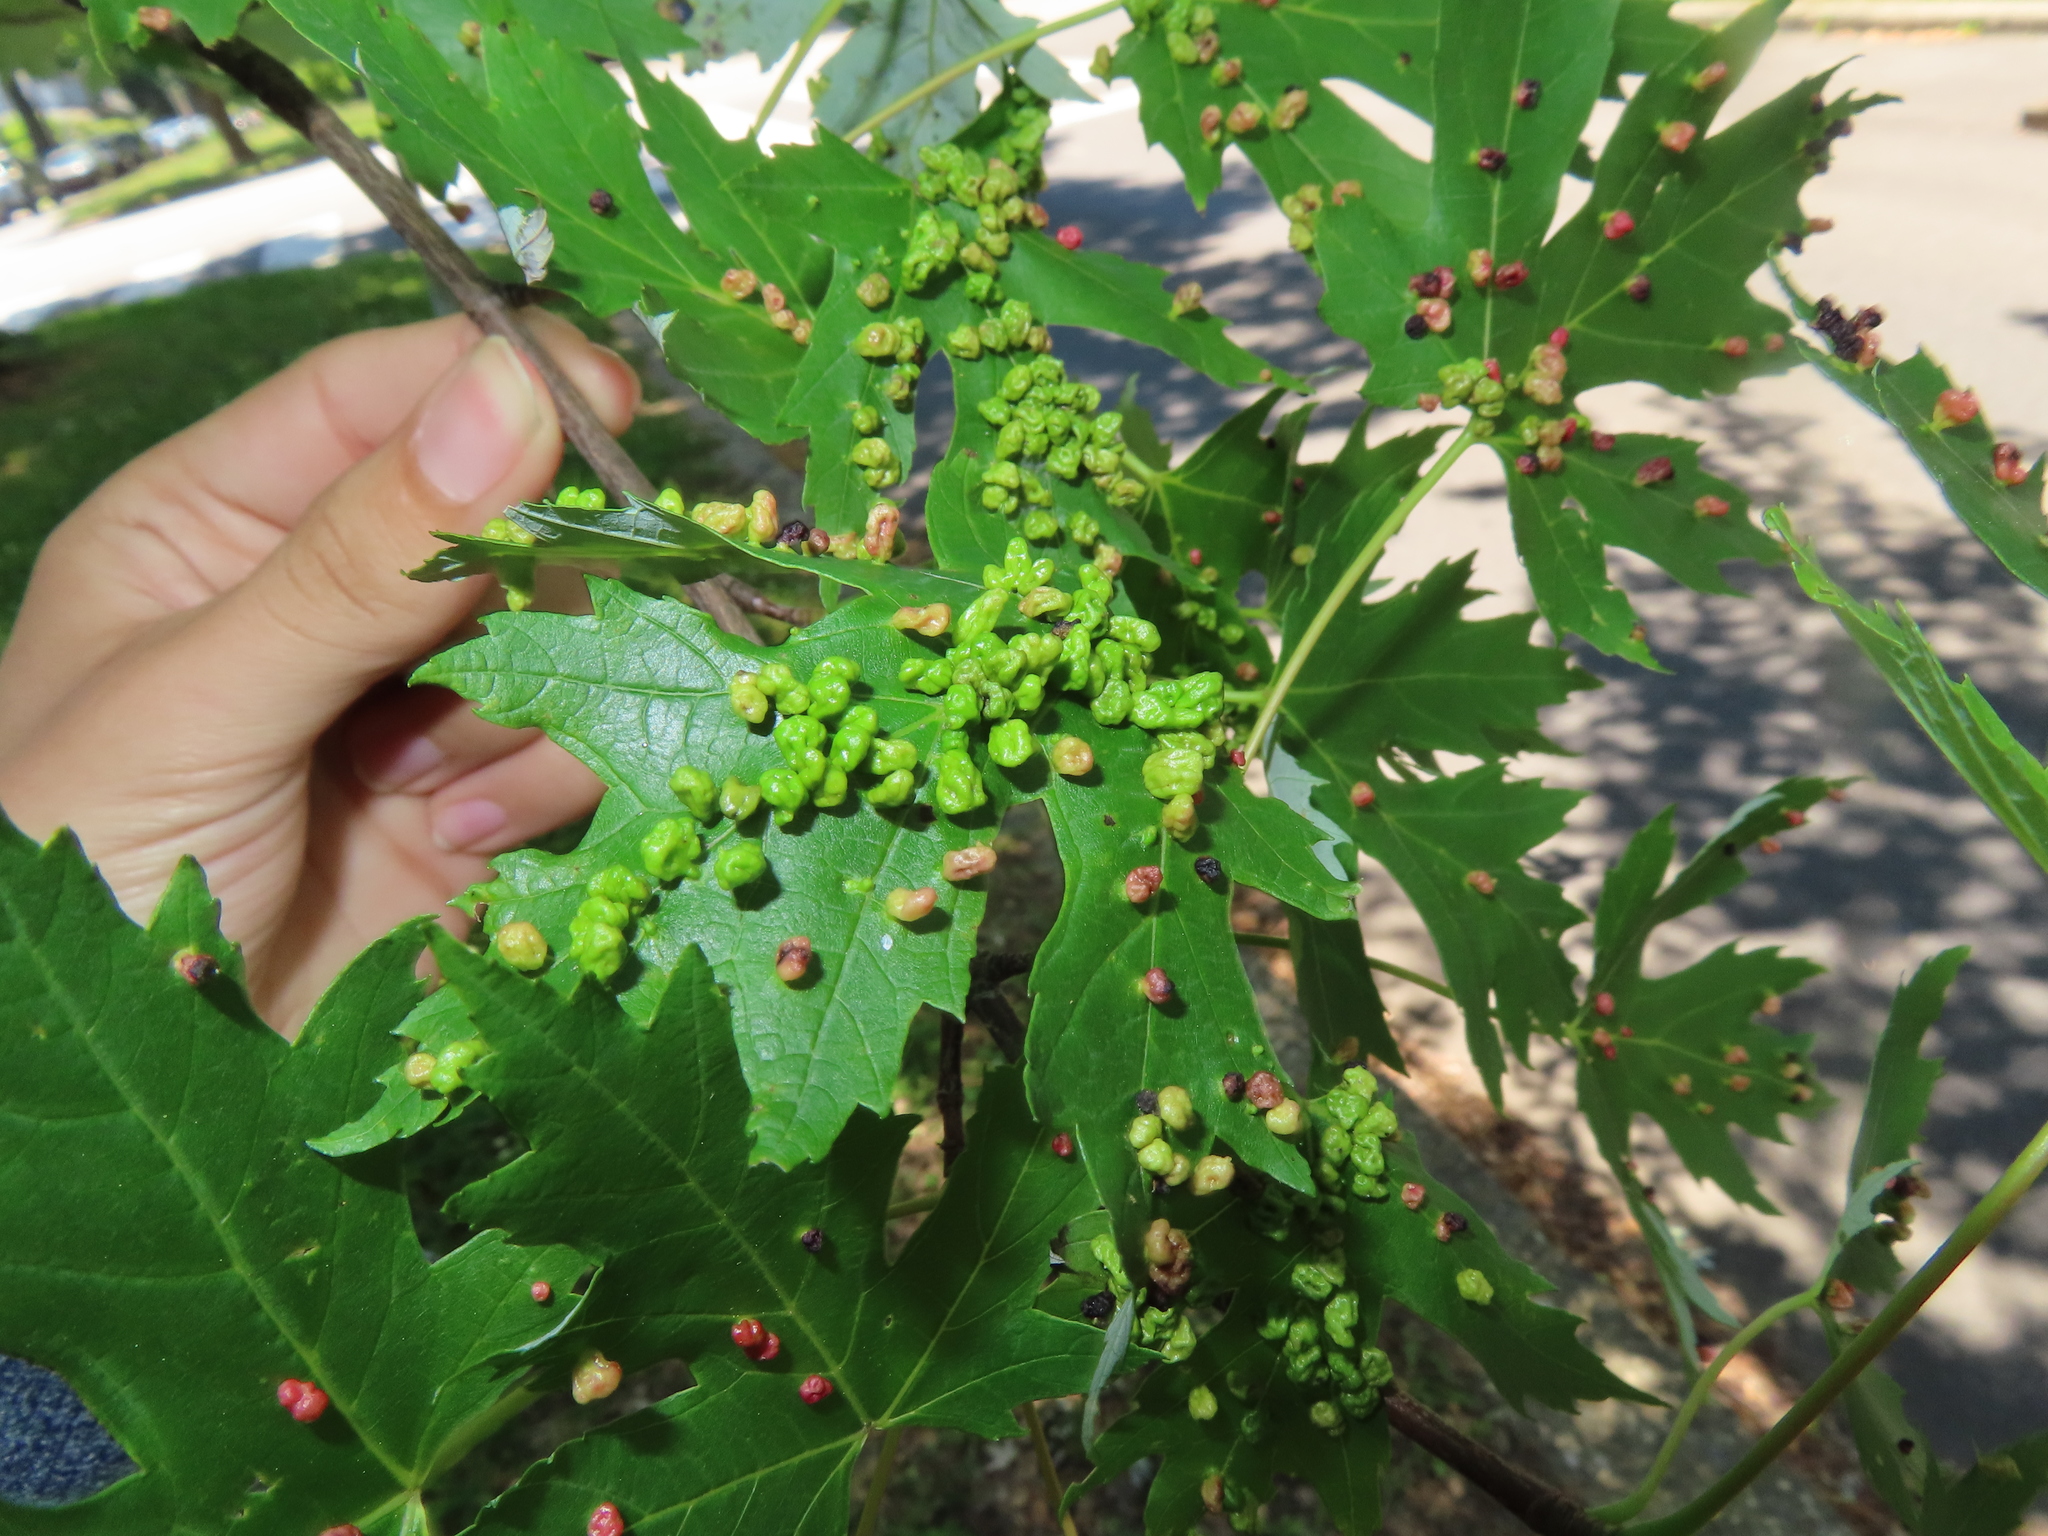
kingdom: Animalia
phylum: Arthropoda
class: Arachnida
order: Trombidiformes
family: Eriophyidae
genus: Vasates
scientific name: Vasates quadripedes
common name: Maple bladder gall mite
